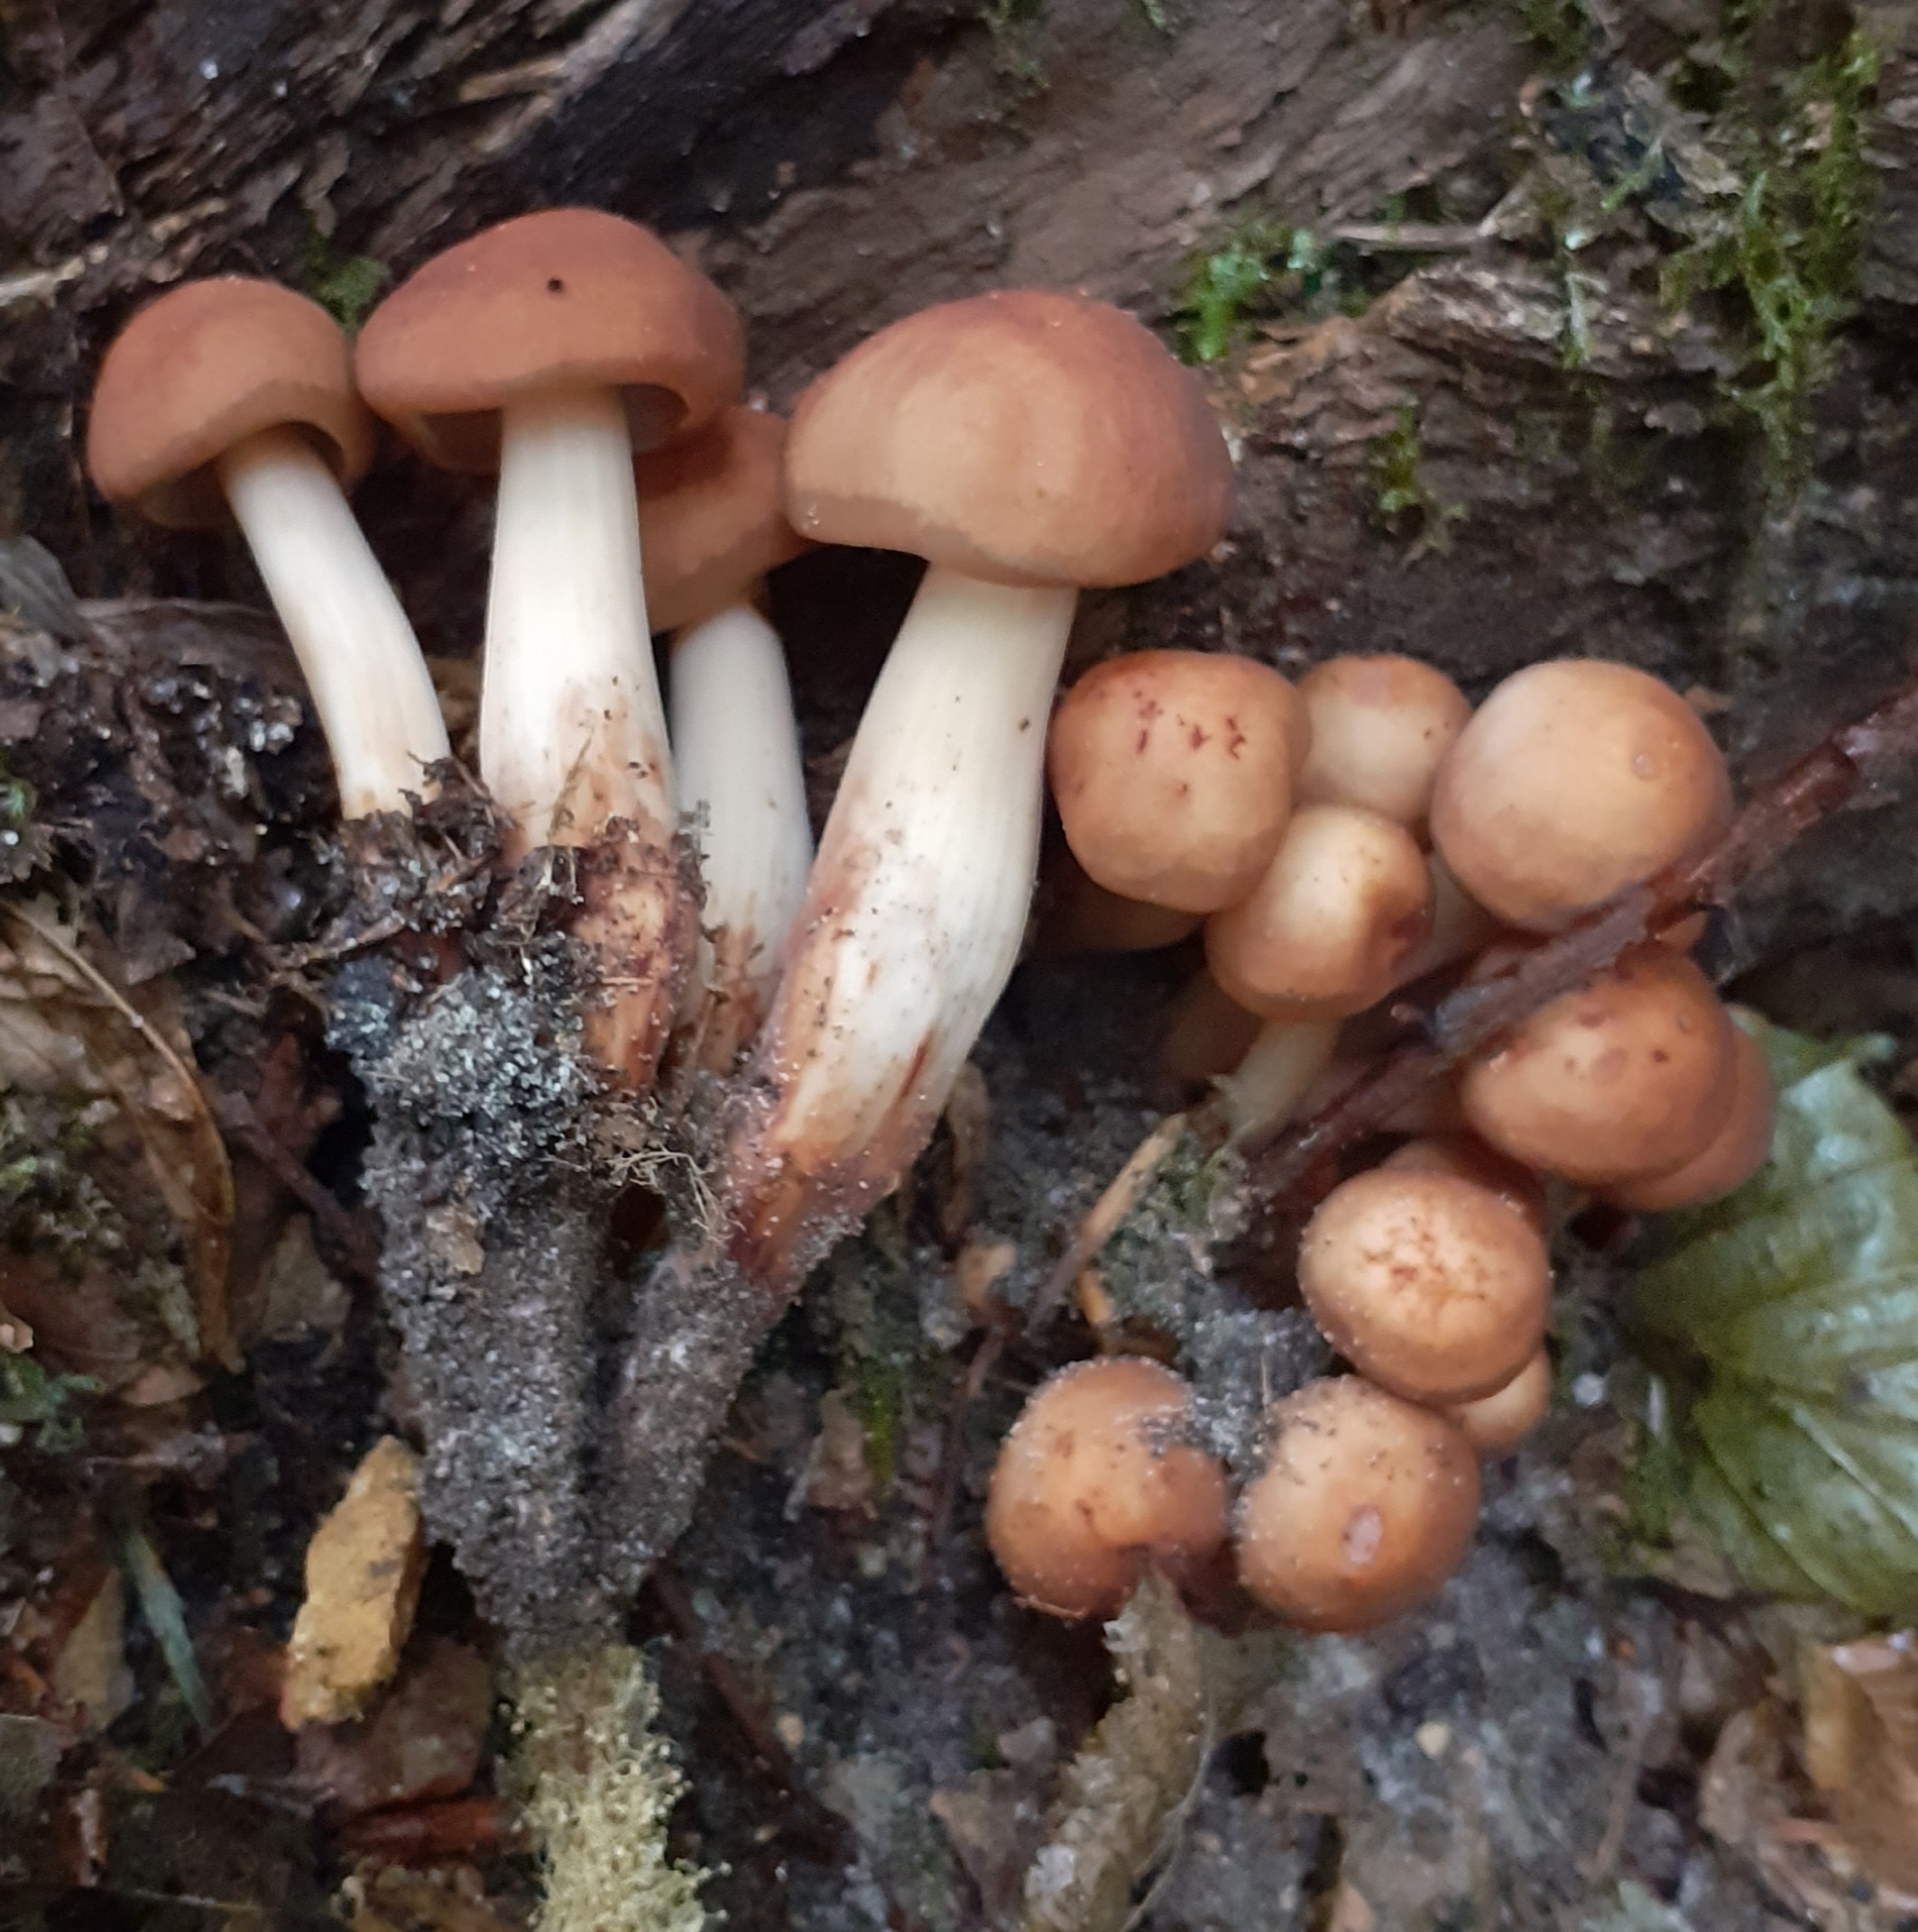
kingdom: Fungi
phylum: Basidiomycota
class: Agaricomycetes
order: Agaricales
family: Omphalotaceae
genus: Gymnopus
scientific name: Gymnopus fusipes
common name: Spindle shank
